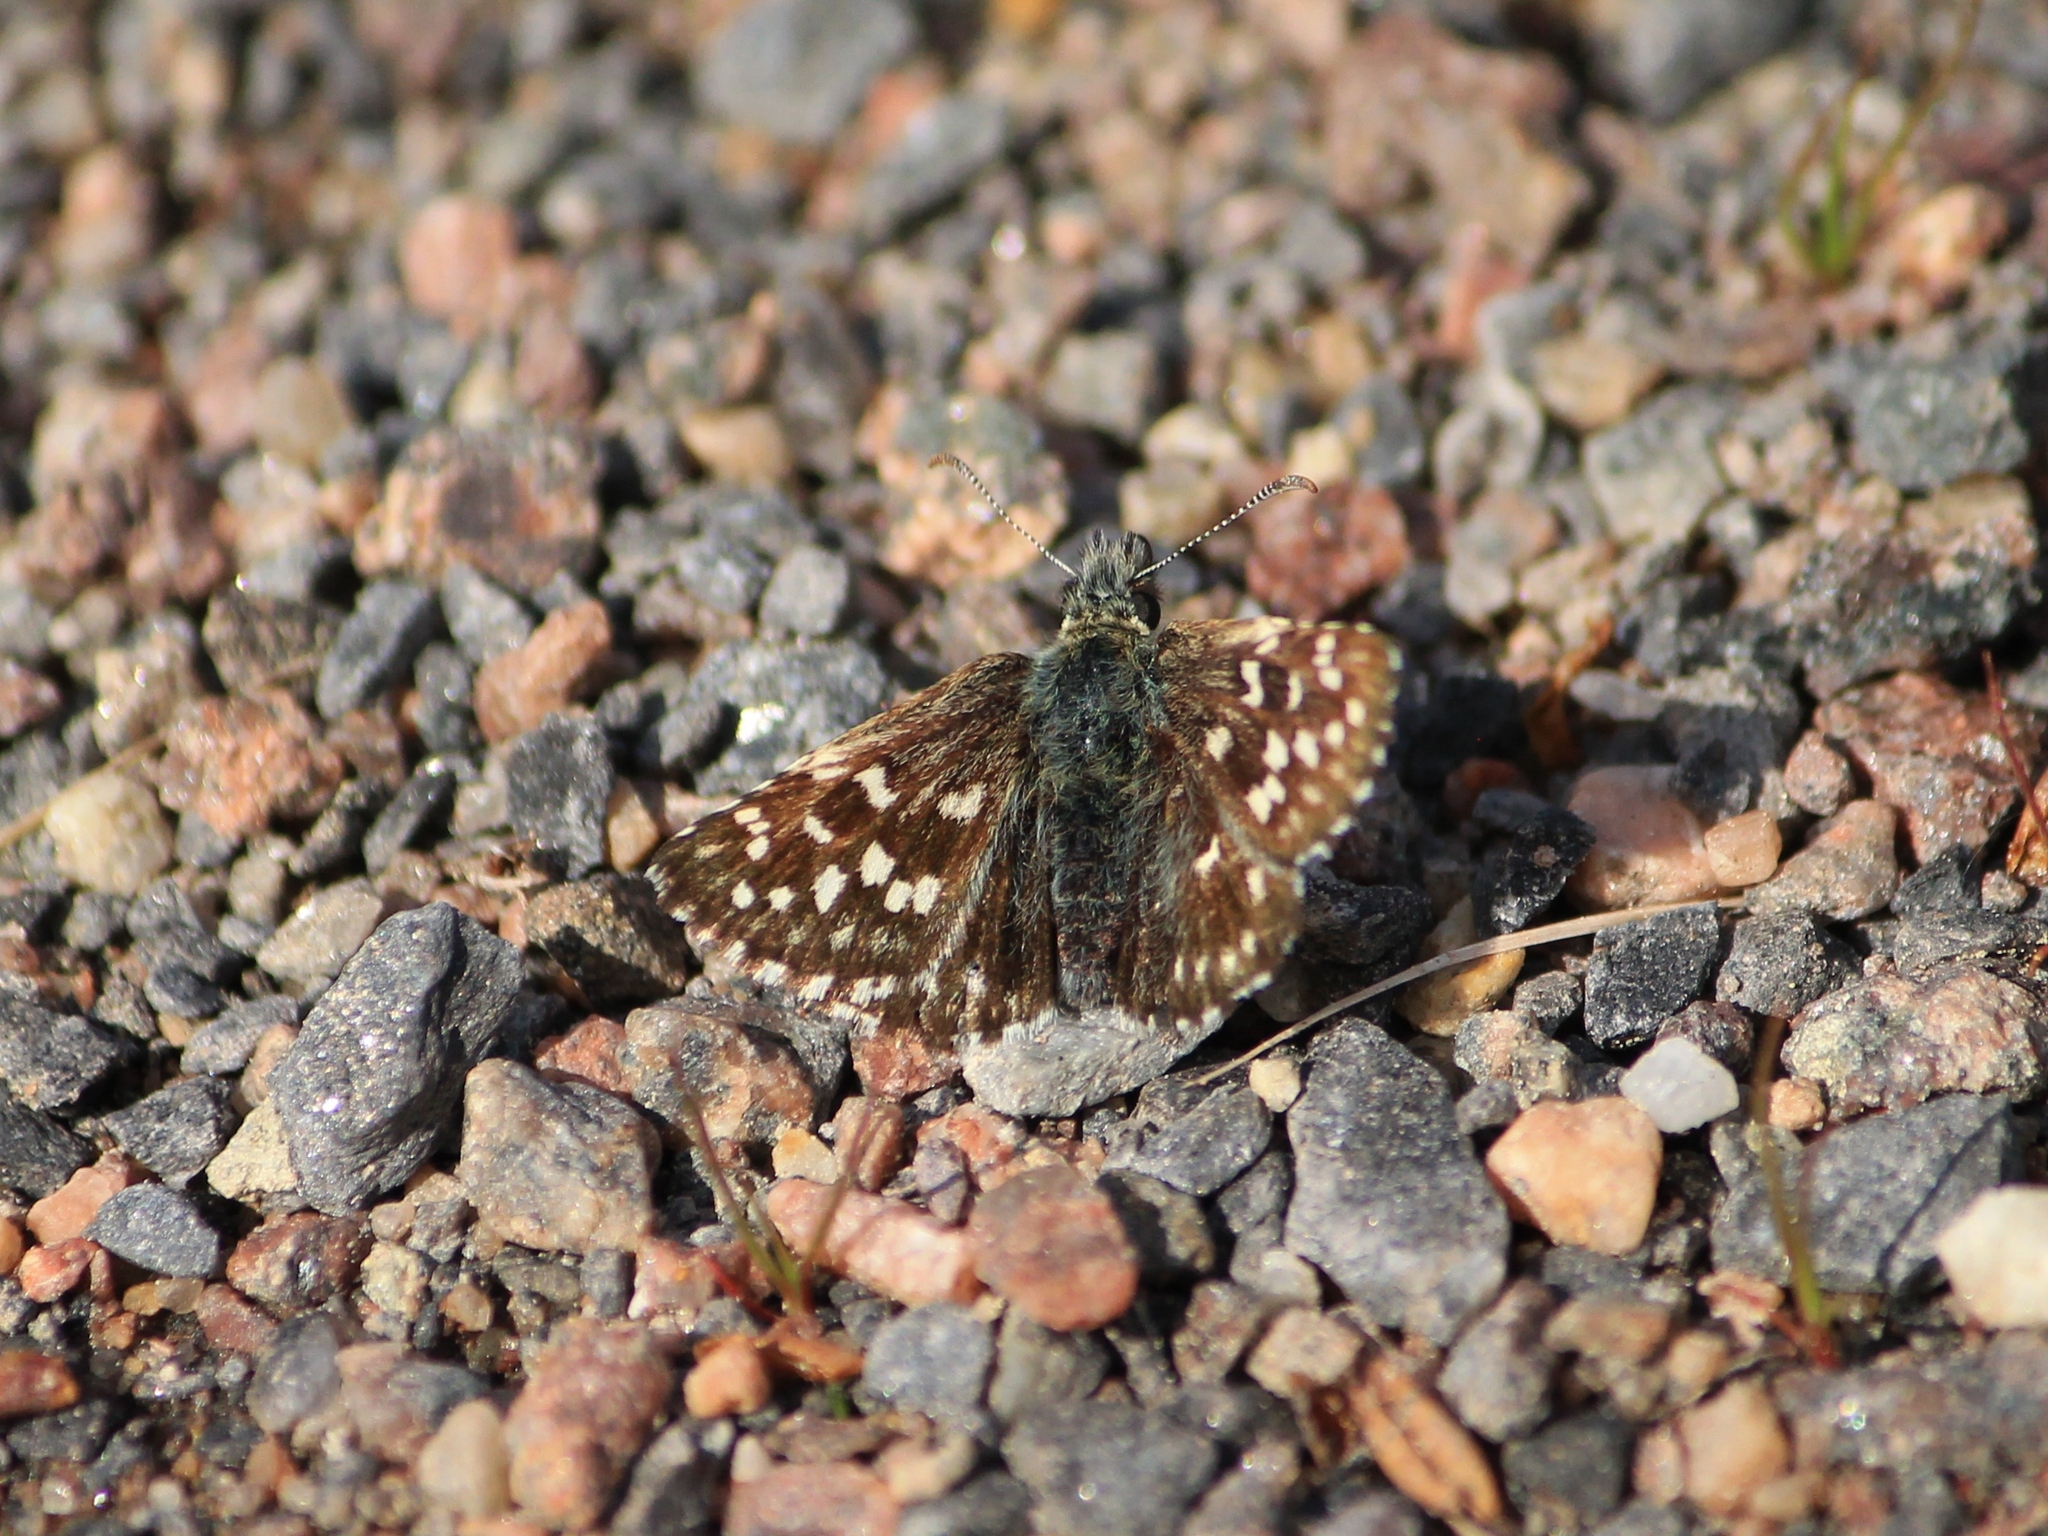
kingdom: Animalia
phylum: Arthropoda
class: Insecta
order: Lepidoptera
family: Hesperiidae
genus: Pyrgus
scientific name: Pyrgus malvae
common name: Grizzled skipper
